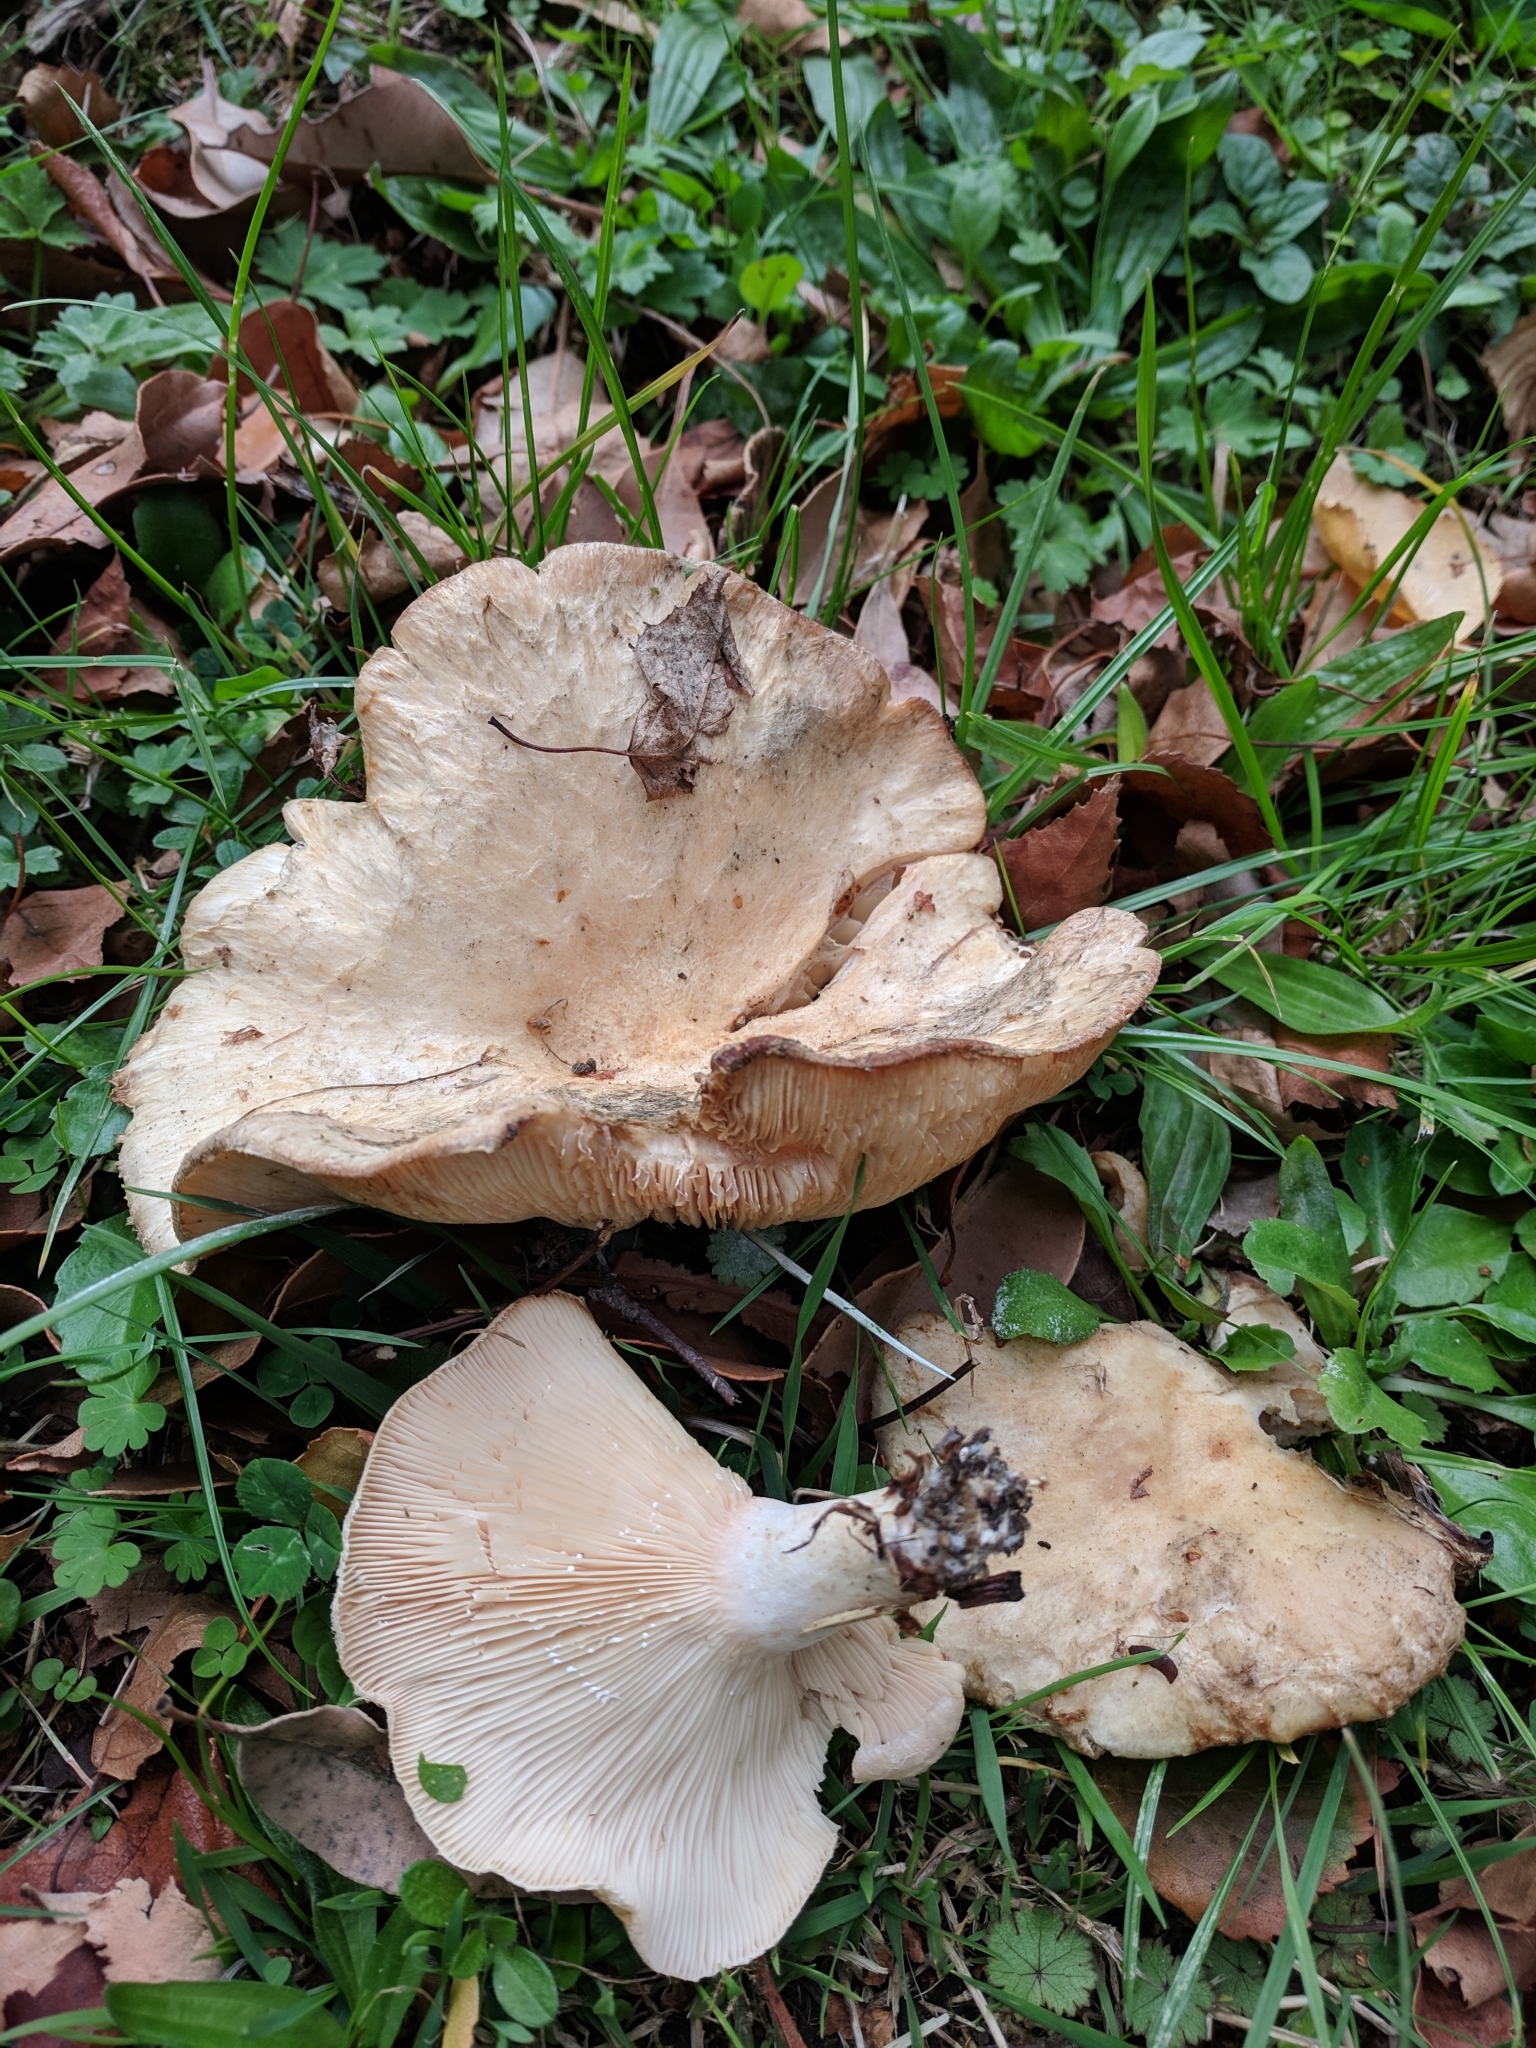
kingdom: Fungi
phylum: Basidiomycota
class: Agaricomycetes
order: Russulales
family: Russulaceae
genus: Lactarius
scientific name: Lactarius pubescens
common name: Bearded milkcap
